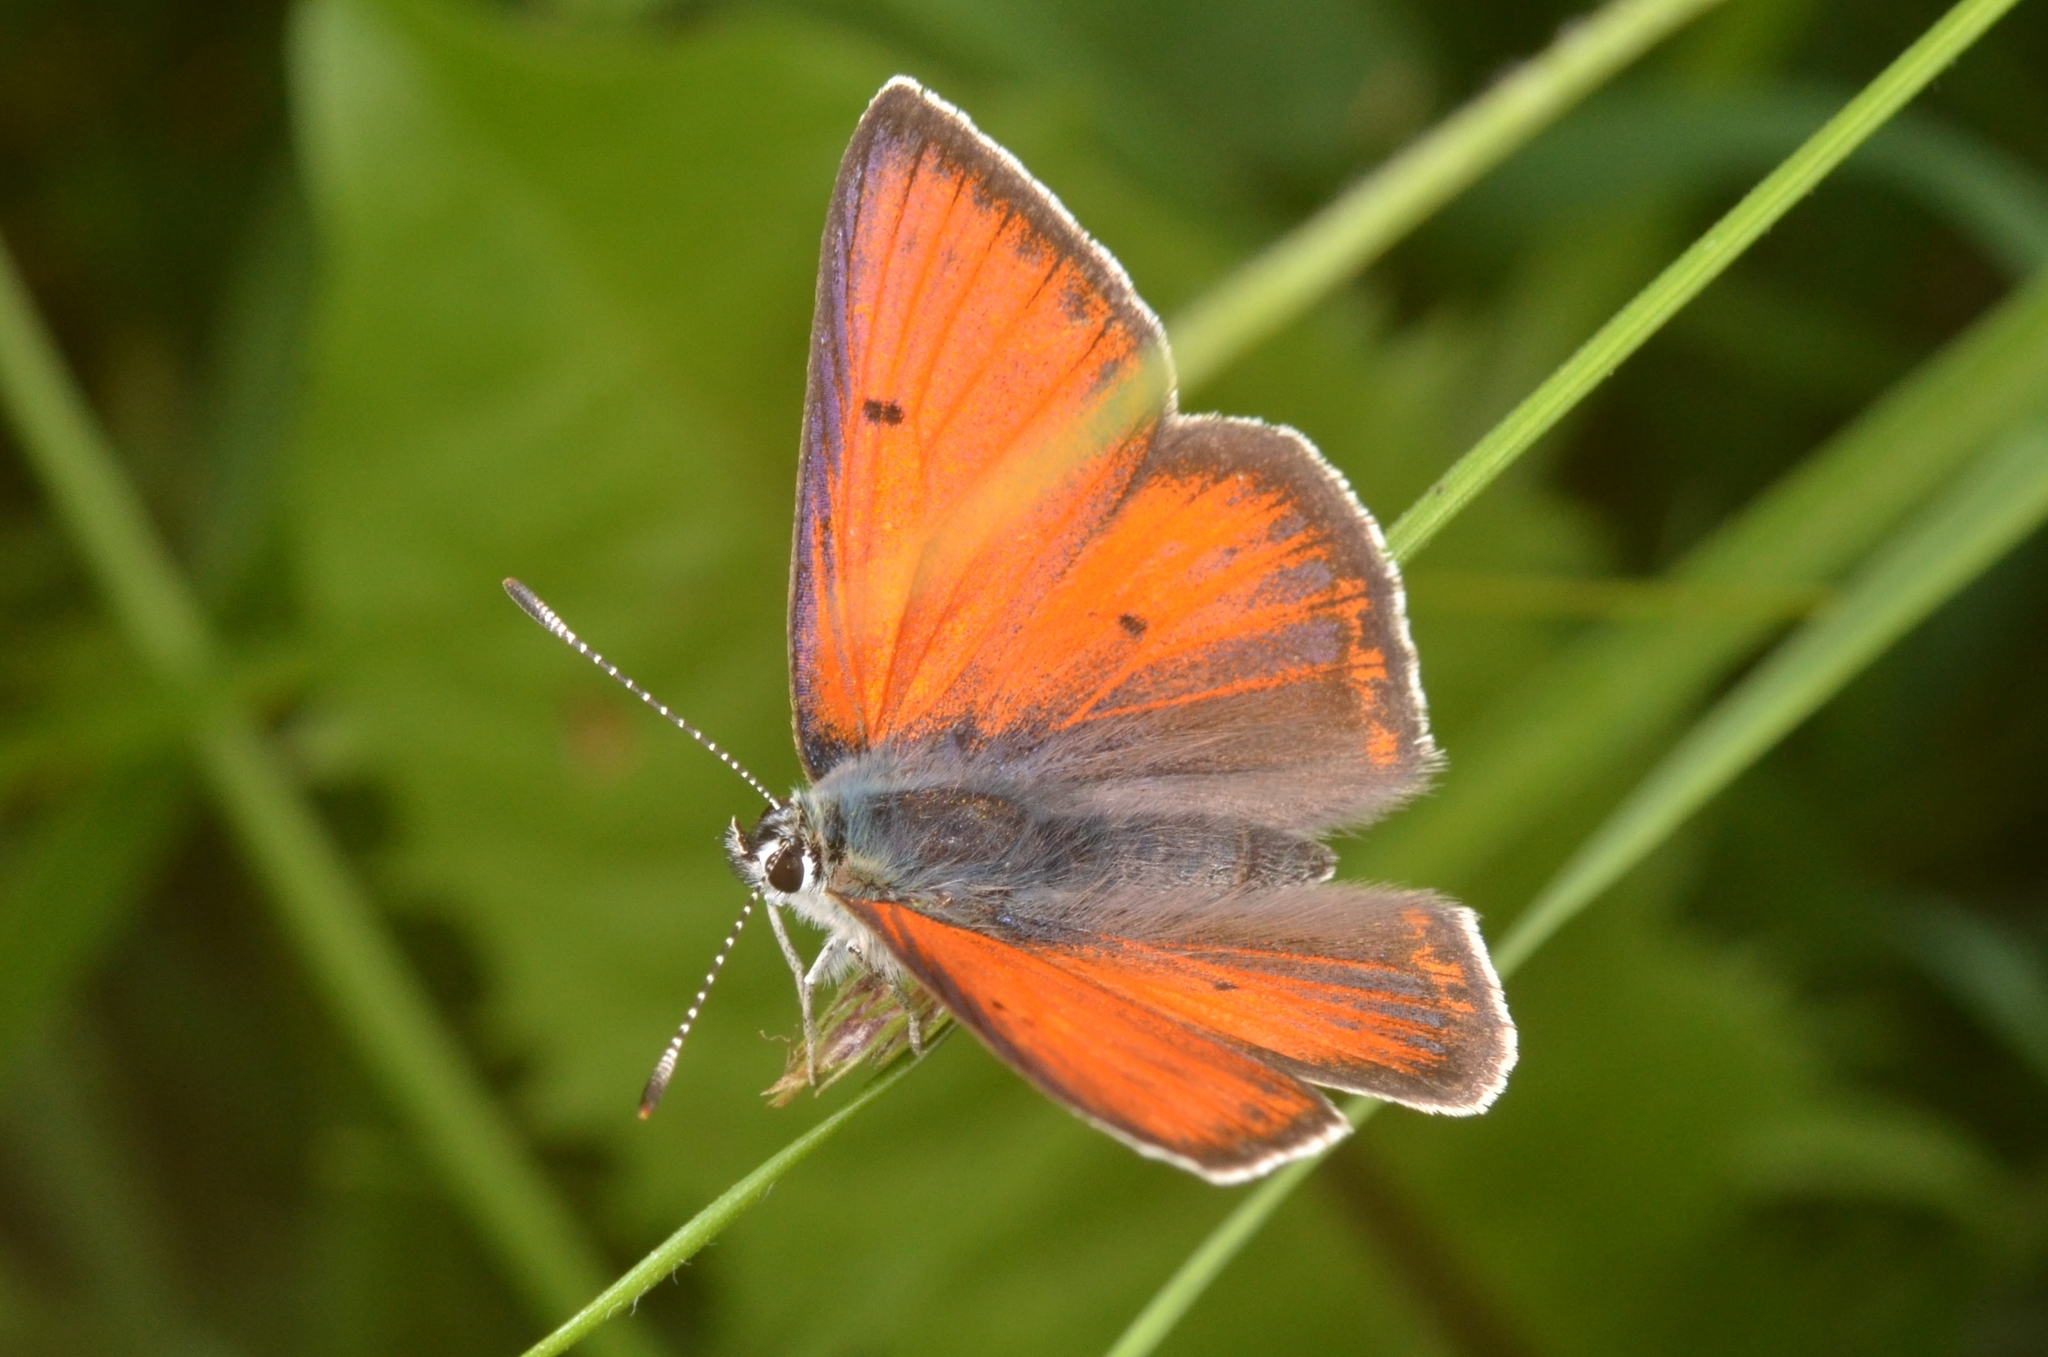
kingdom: Animalia
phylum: Arthropoda
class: Insecta
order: Lepidoptera
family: Lycaenidae
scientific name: Lycaenidae
